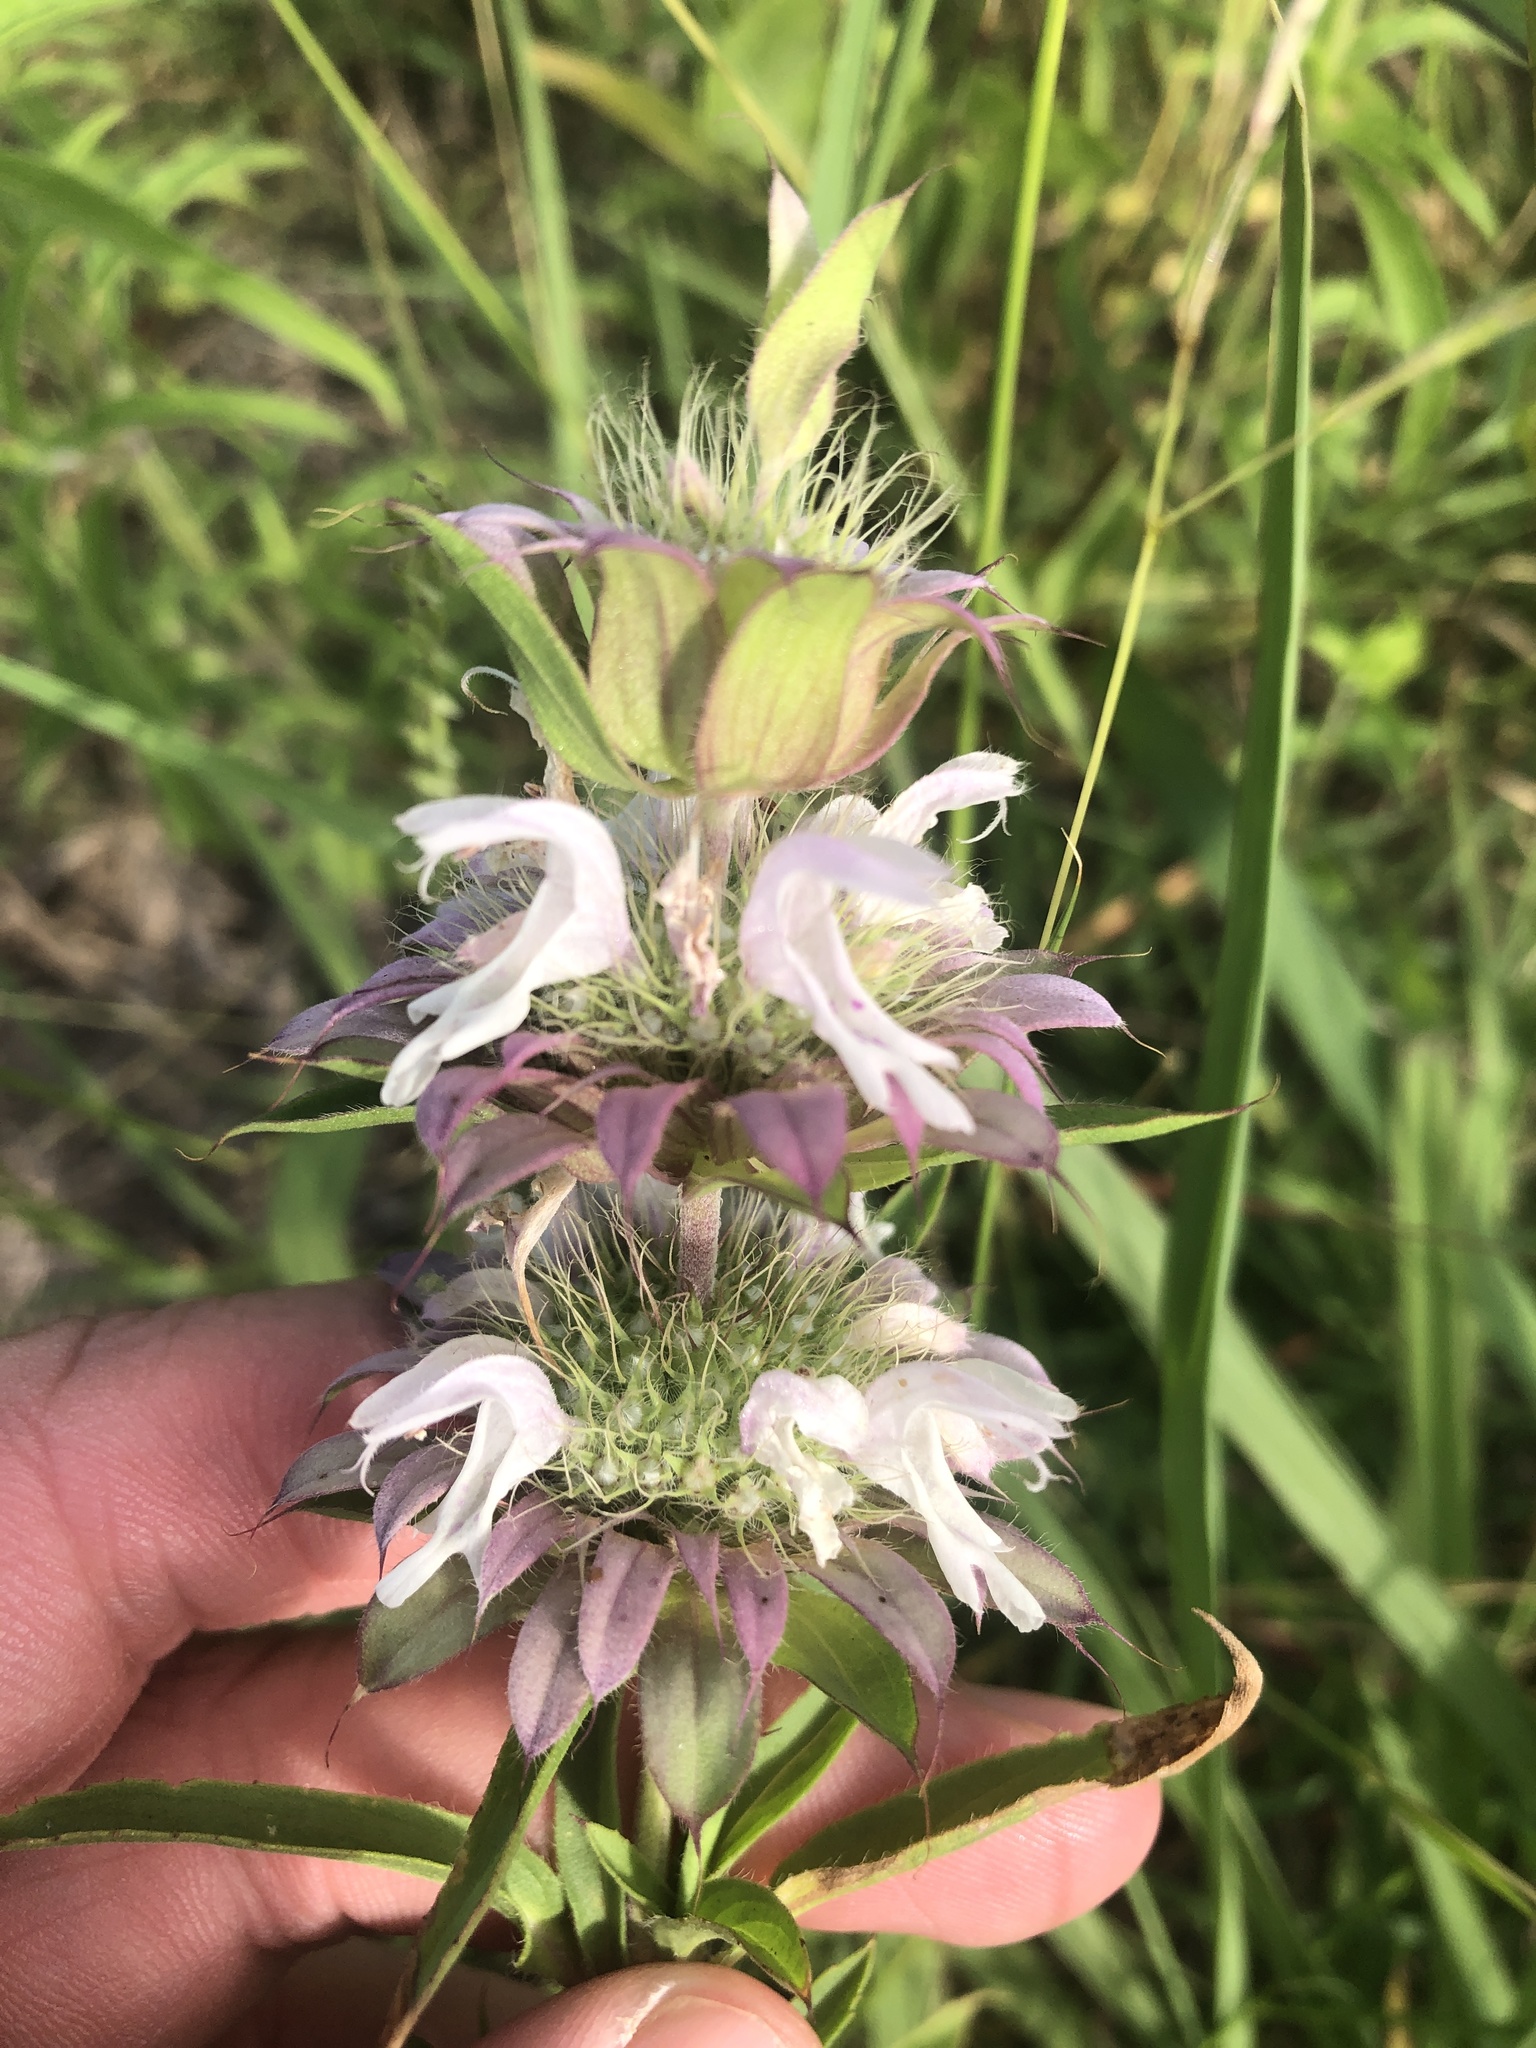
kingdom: Plantae
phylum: Tracheophyta
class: Magnoliopsida
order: Lamiales
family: Lamiaceae
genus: Monarda
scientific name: Monarda citriodora
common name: Lemon beebalm
